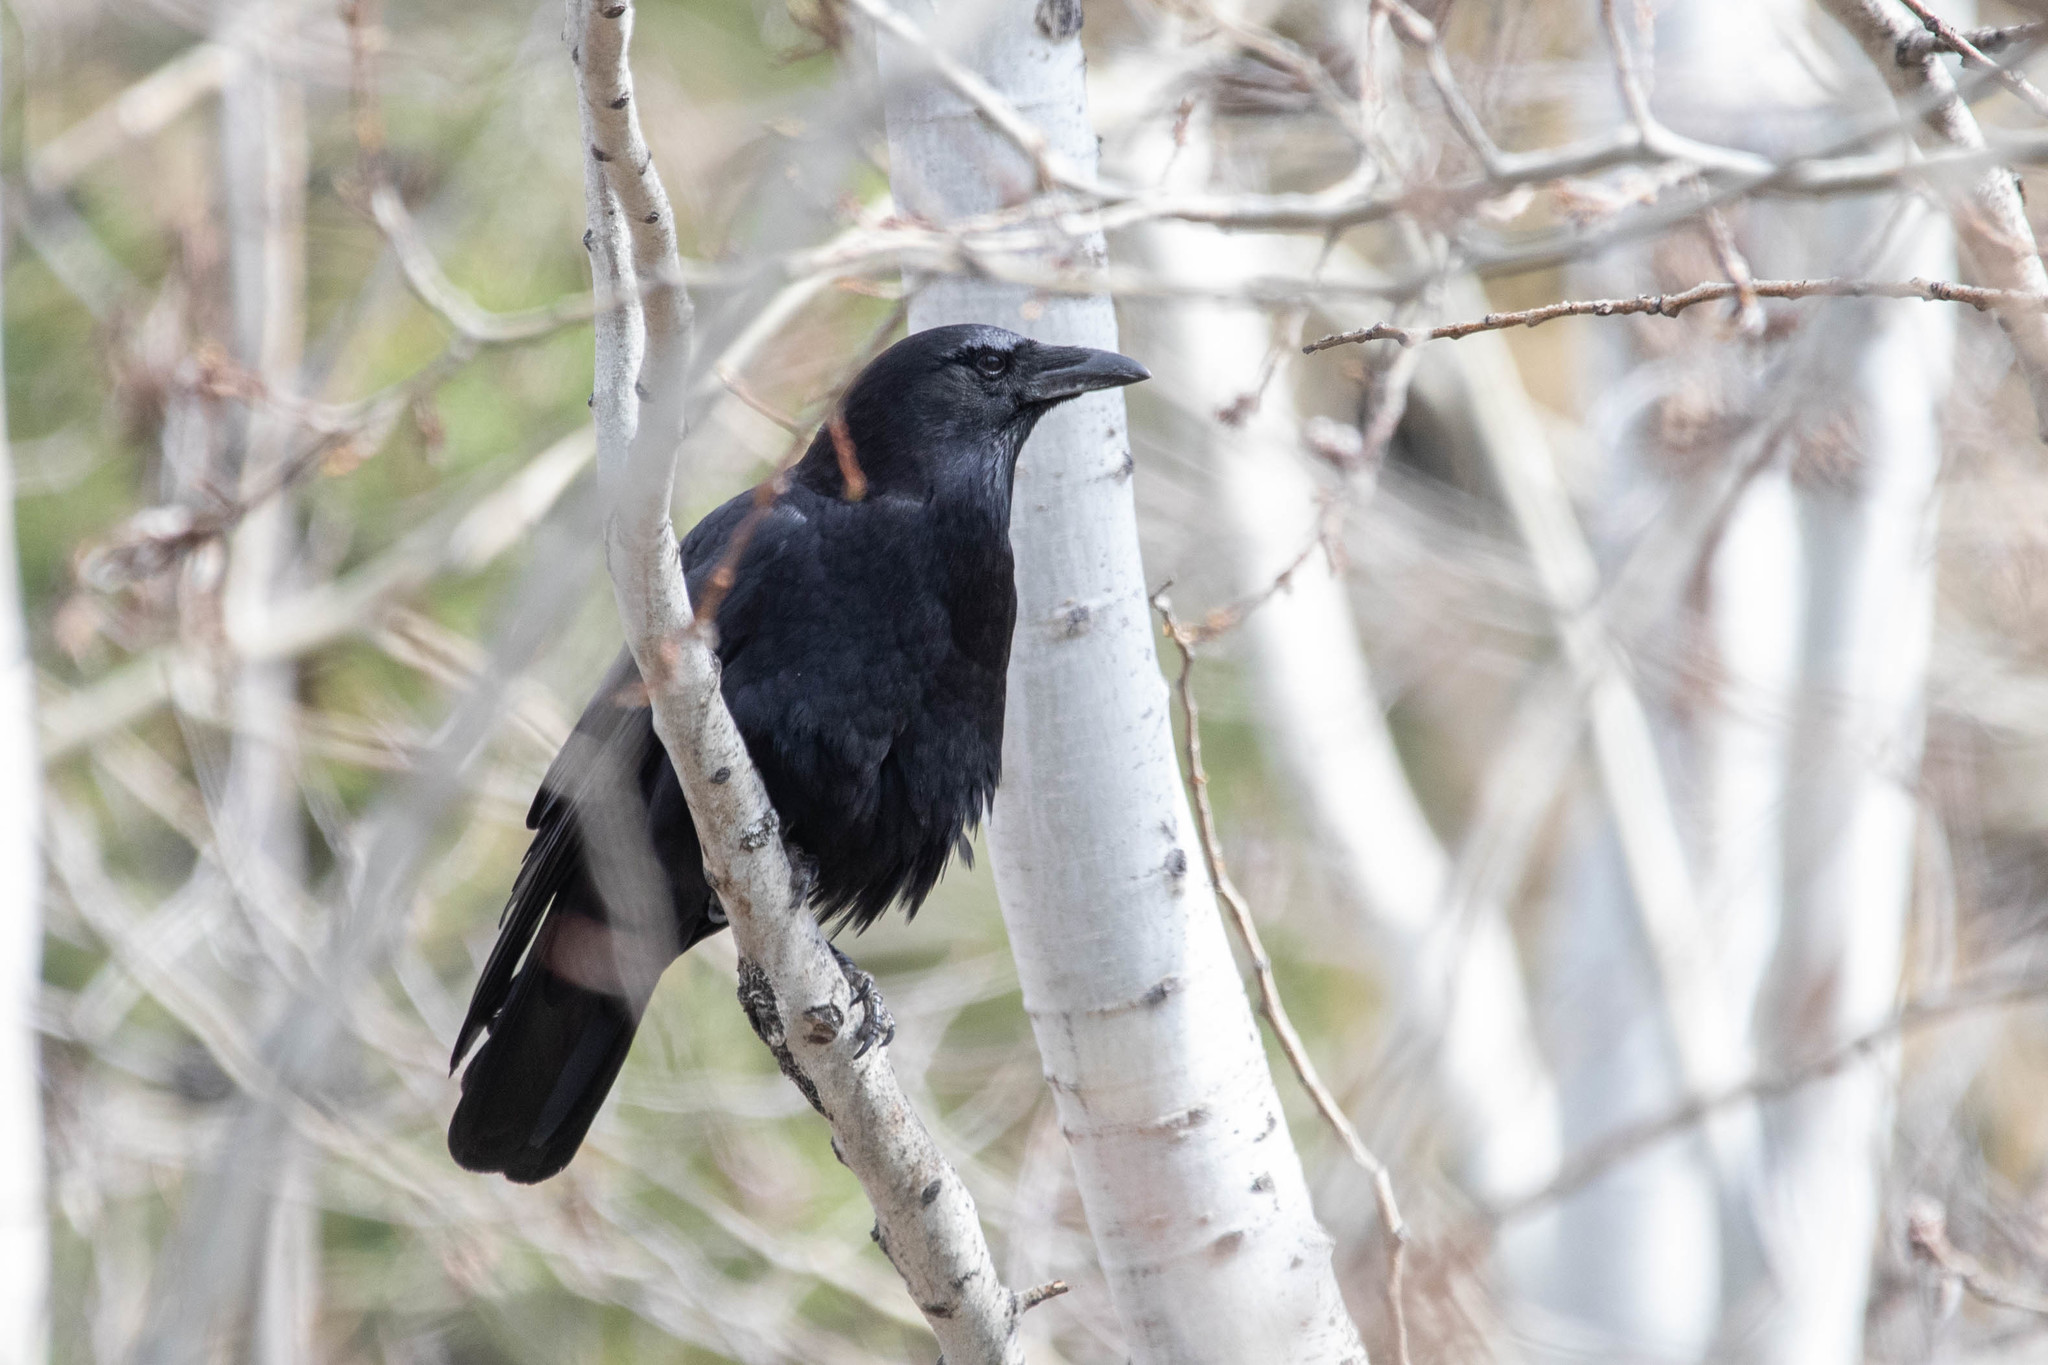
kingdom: Animalia
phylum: Chordata
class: Aves
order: Passeriformes
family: Corvidae
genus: Corvus
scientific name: Corvus brachyrhynchos
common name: American crow
